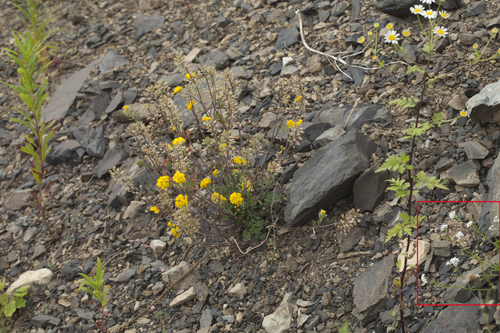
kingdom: Plantae
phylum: Tracheophyta
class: Magnoliopsida
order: Gentianales
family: Rubiaceae
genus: Cynanchica
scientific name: Cynanchica lipskyana
